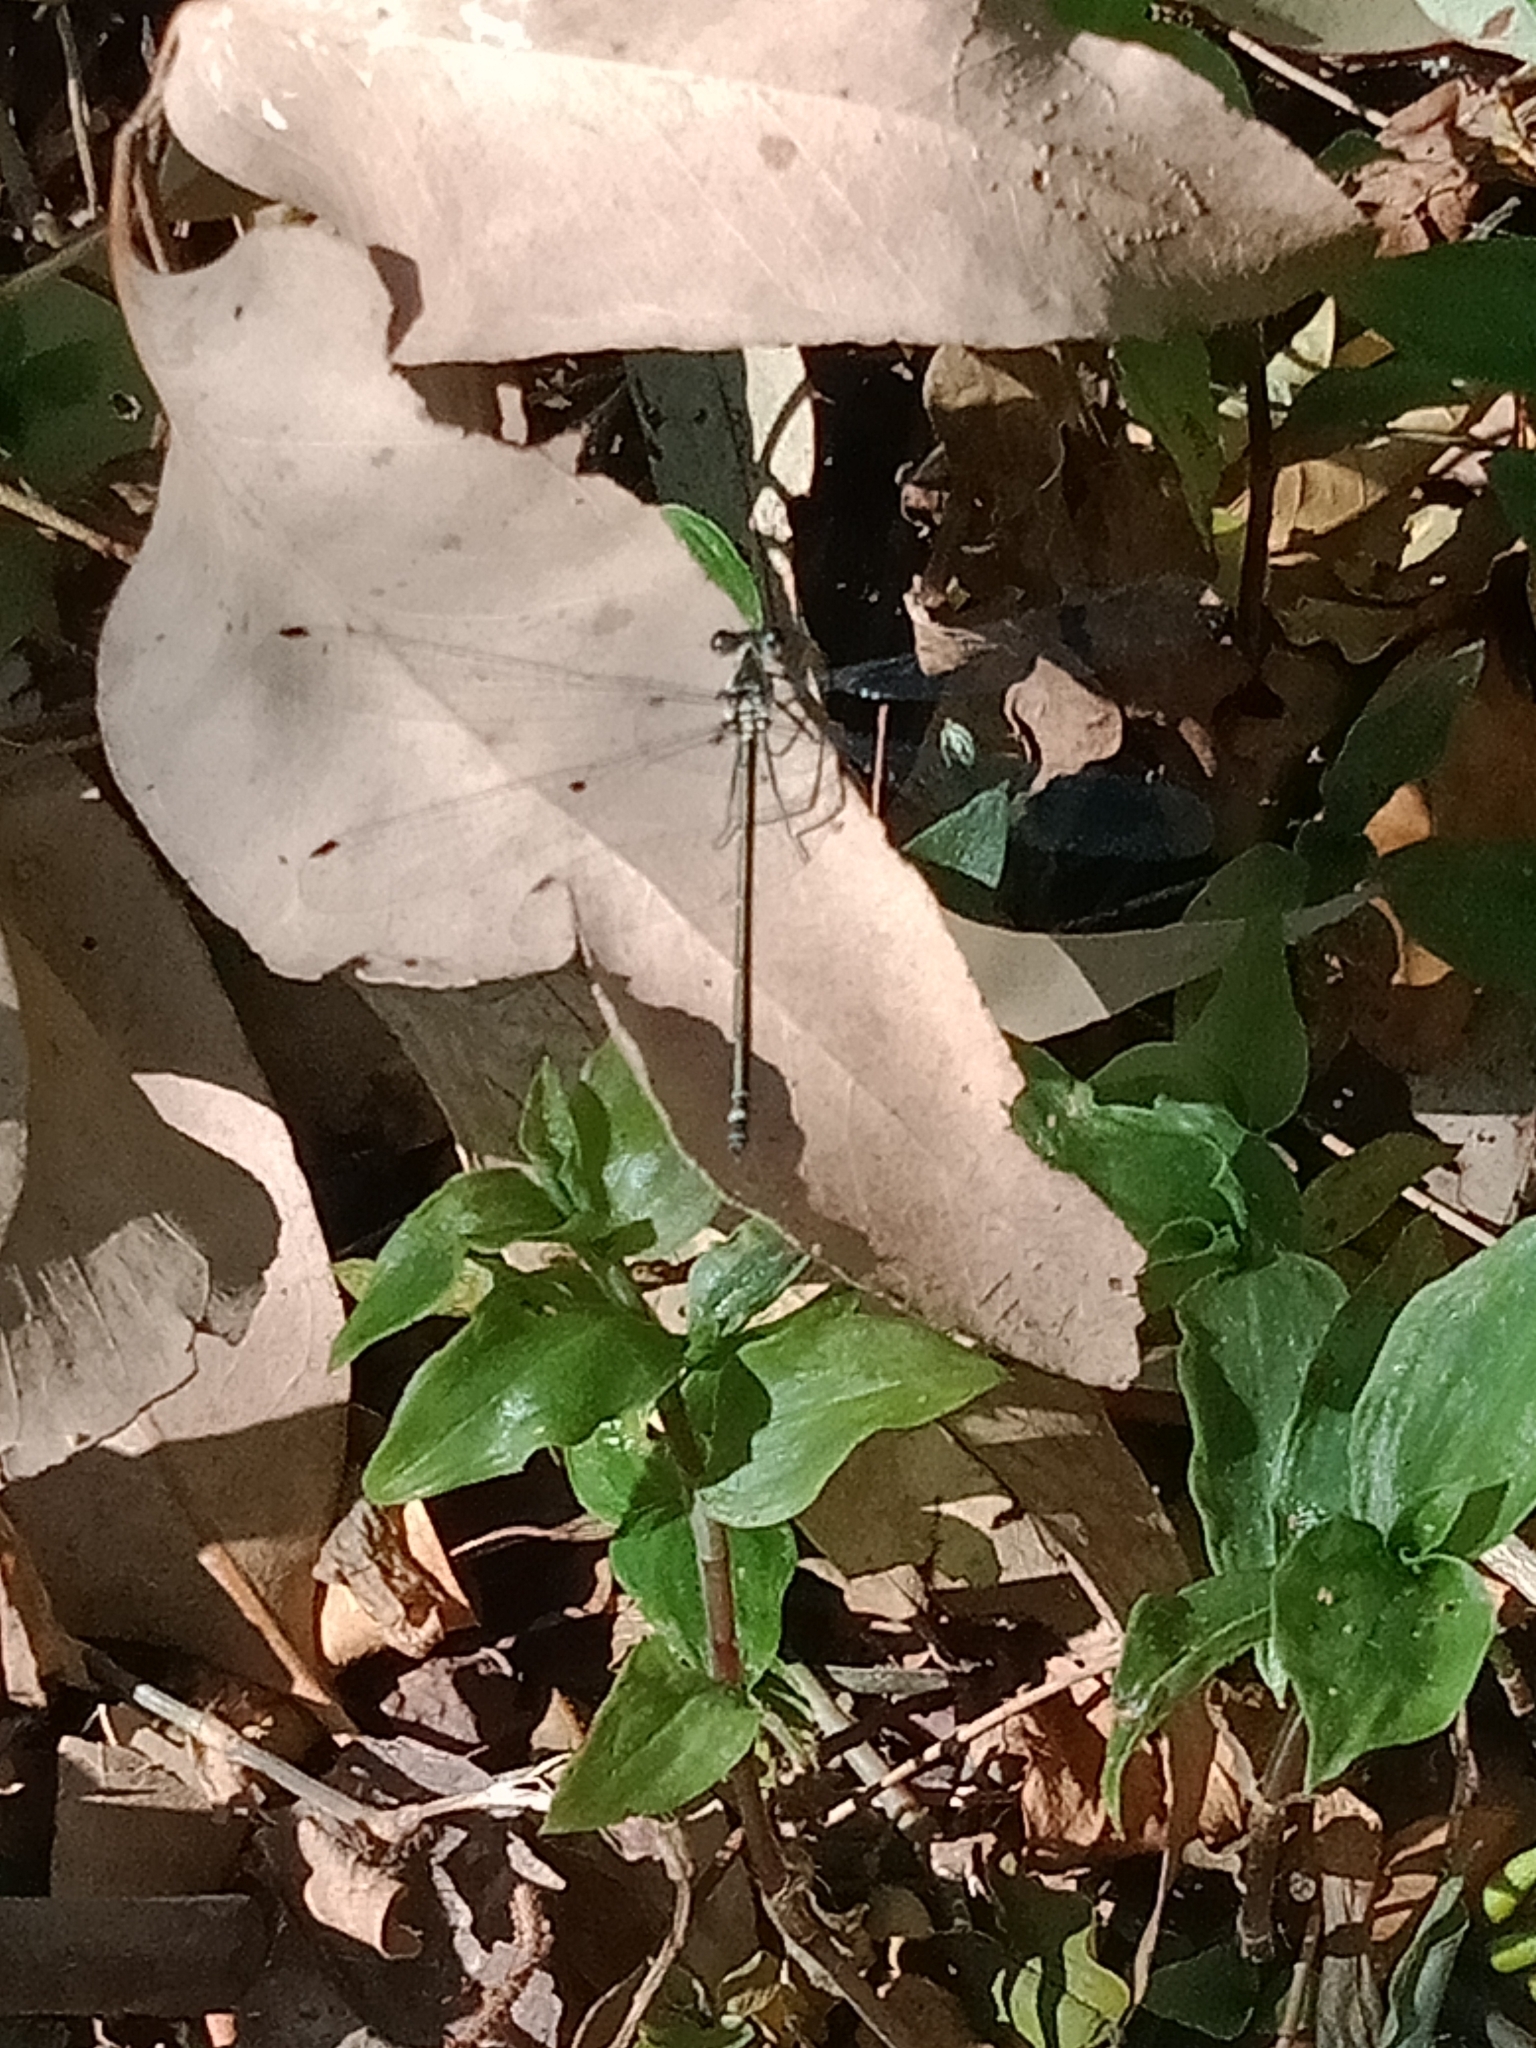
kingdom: Animalia
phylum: Arthropoda
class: Insecta
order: Odonata
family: Argiolestidae
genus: Austroargiolestes
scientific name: Austroargiolestes icteromelas
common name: Common flatwing
